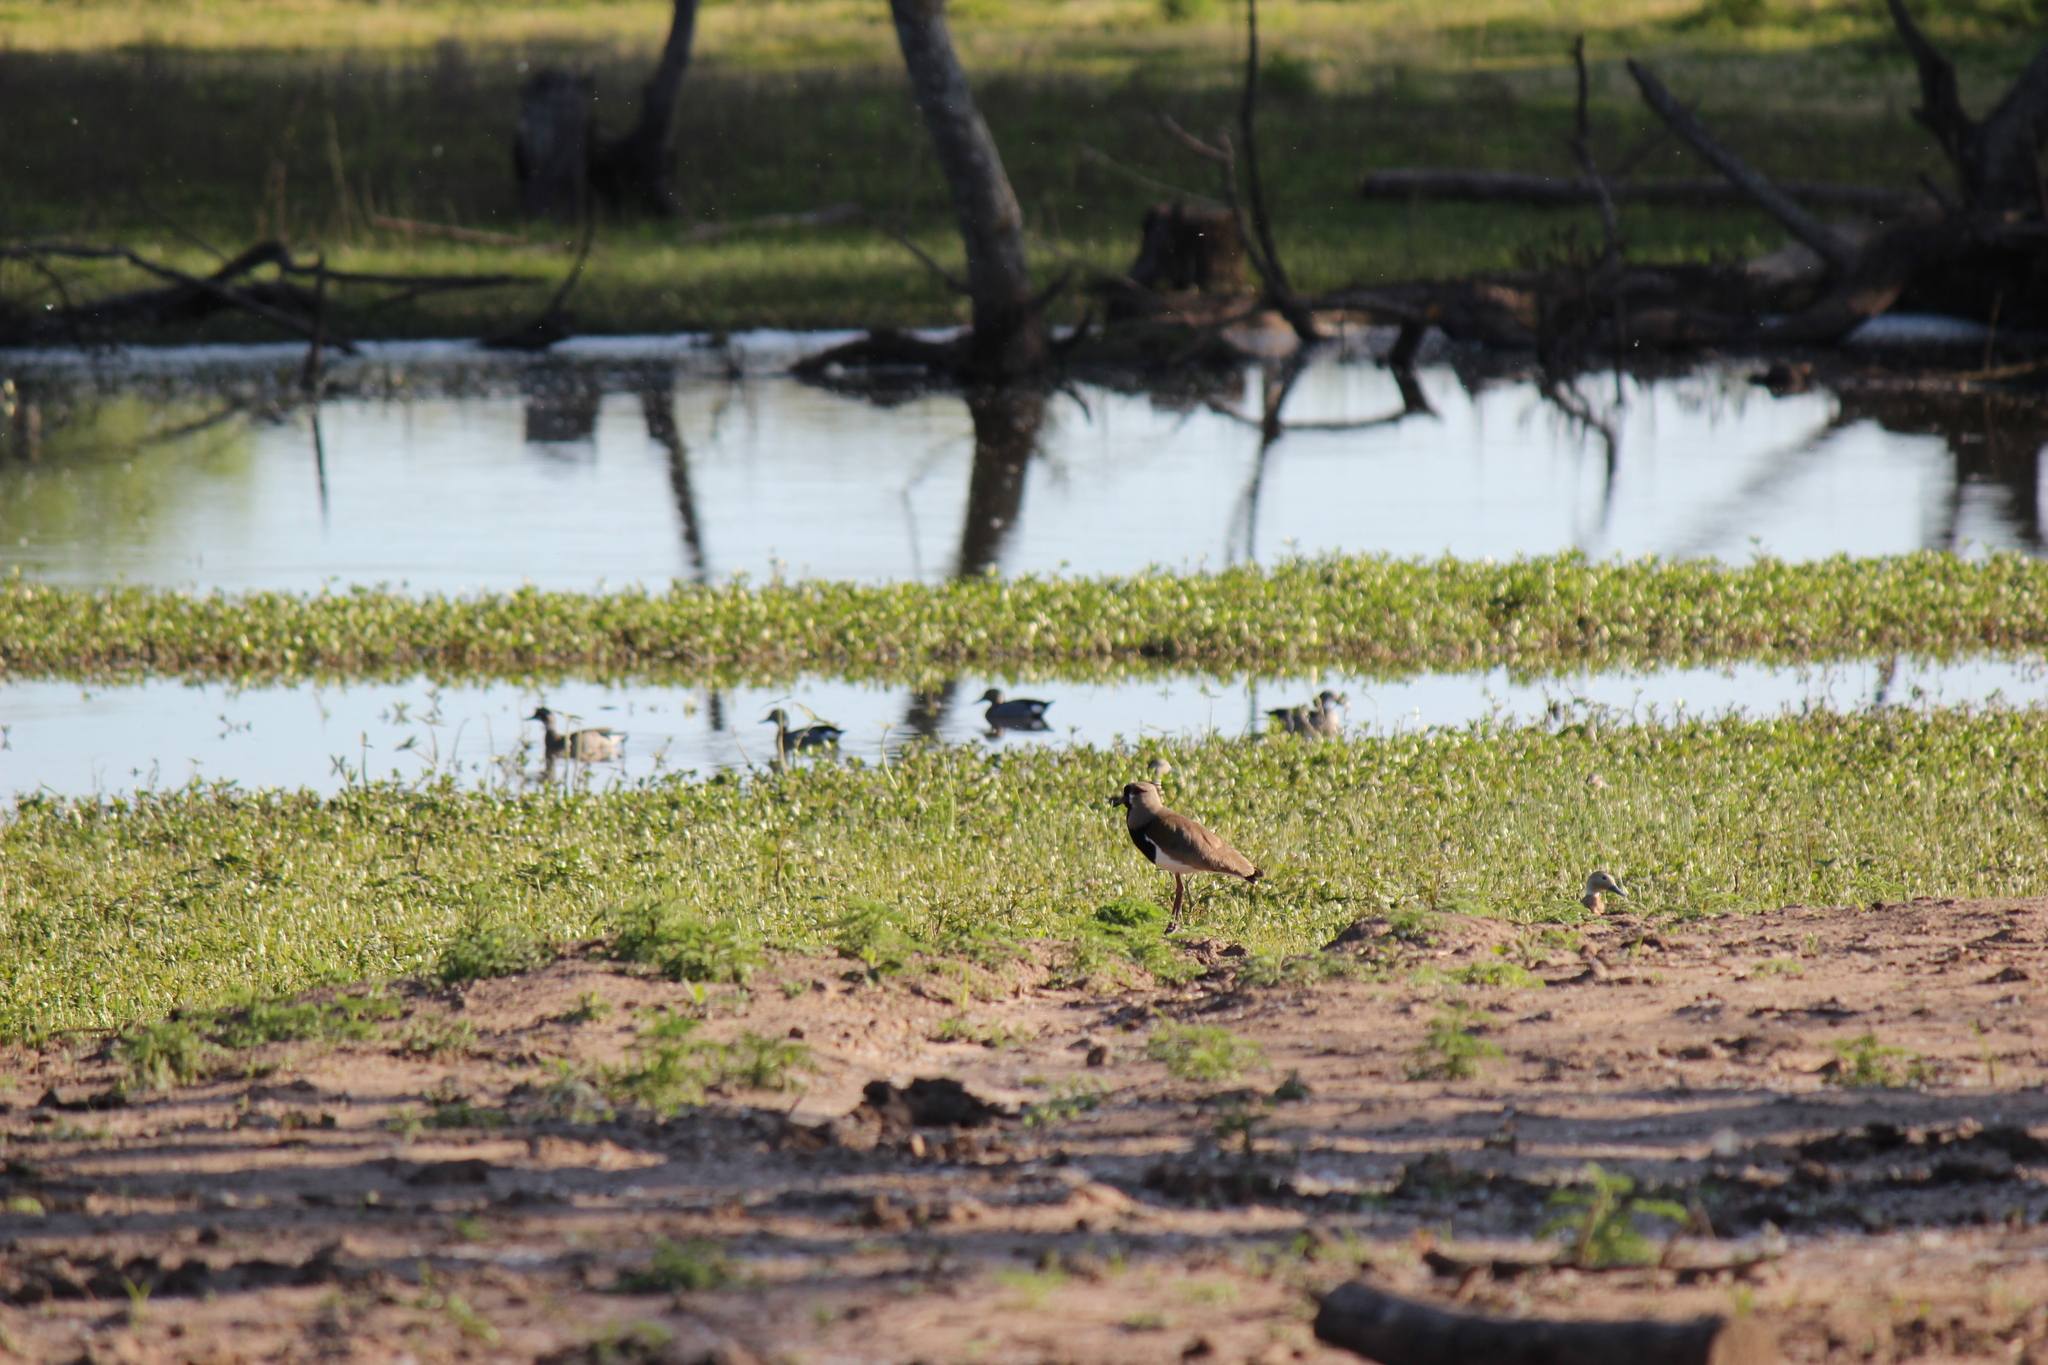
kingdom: Animalia
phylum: Chordata
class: Aves
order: Charadriiformes
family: Charadriidae
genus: Vanellus
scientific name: Vanellus chilensis
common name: Southern lapwing
